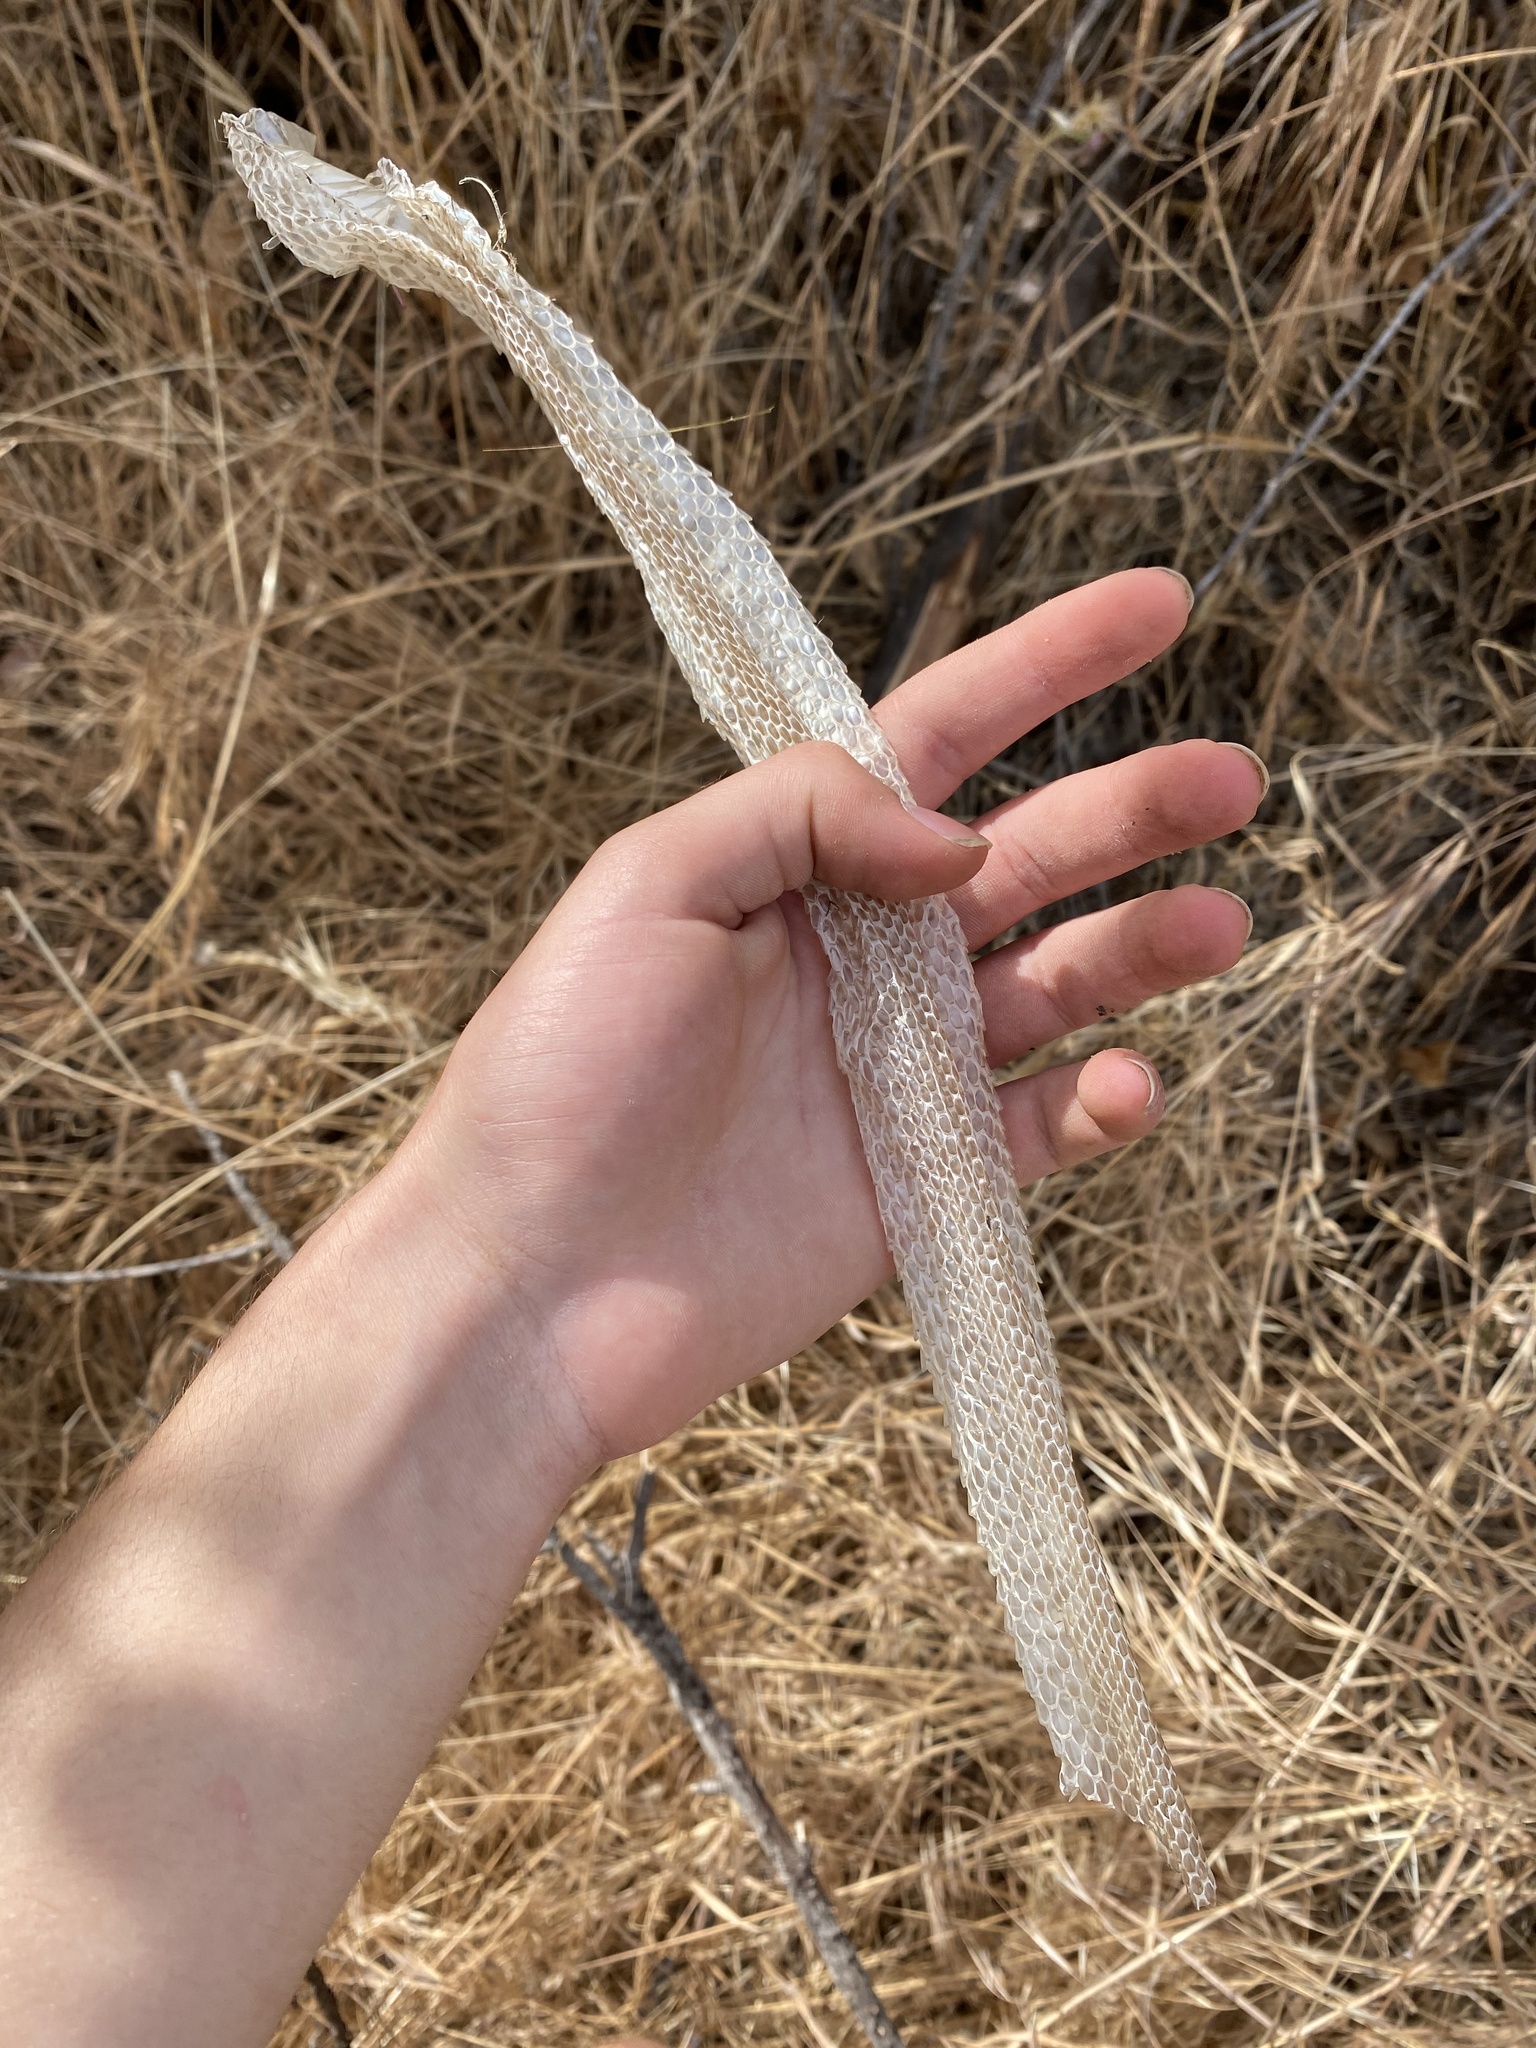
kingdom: Animalia
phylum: Chordata
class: Squamata
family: Viperidae
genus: Crotalus
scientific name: Crotalus oreganus
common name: Abyssus
